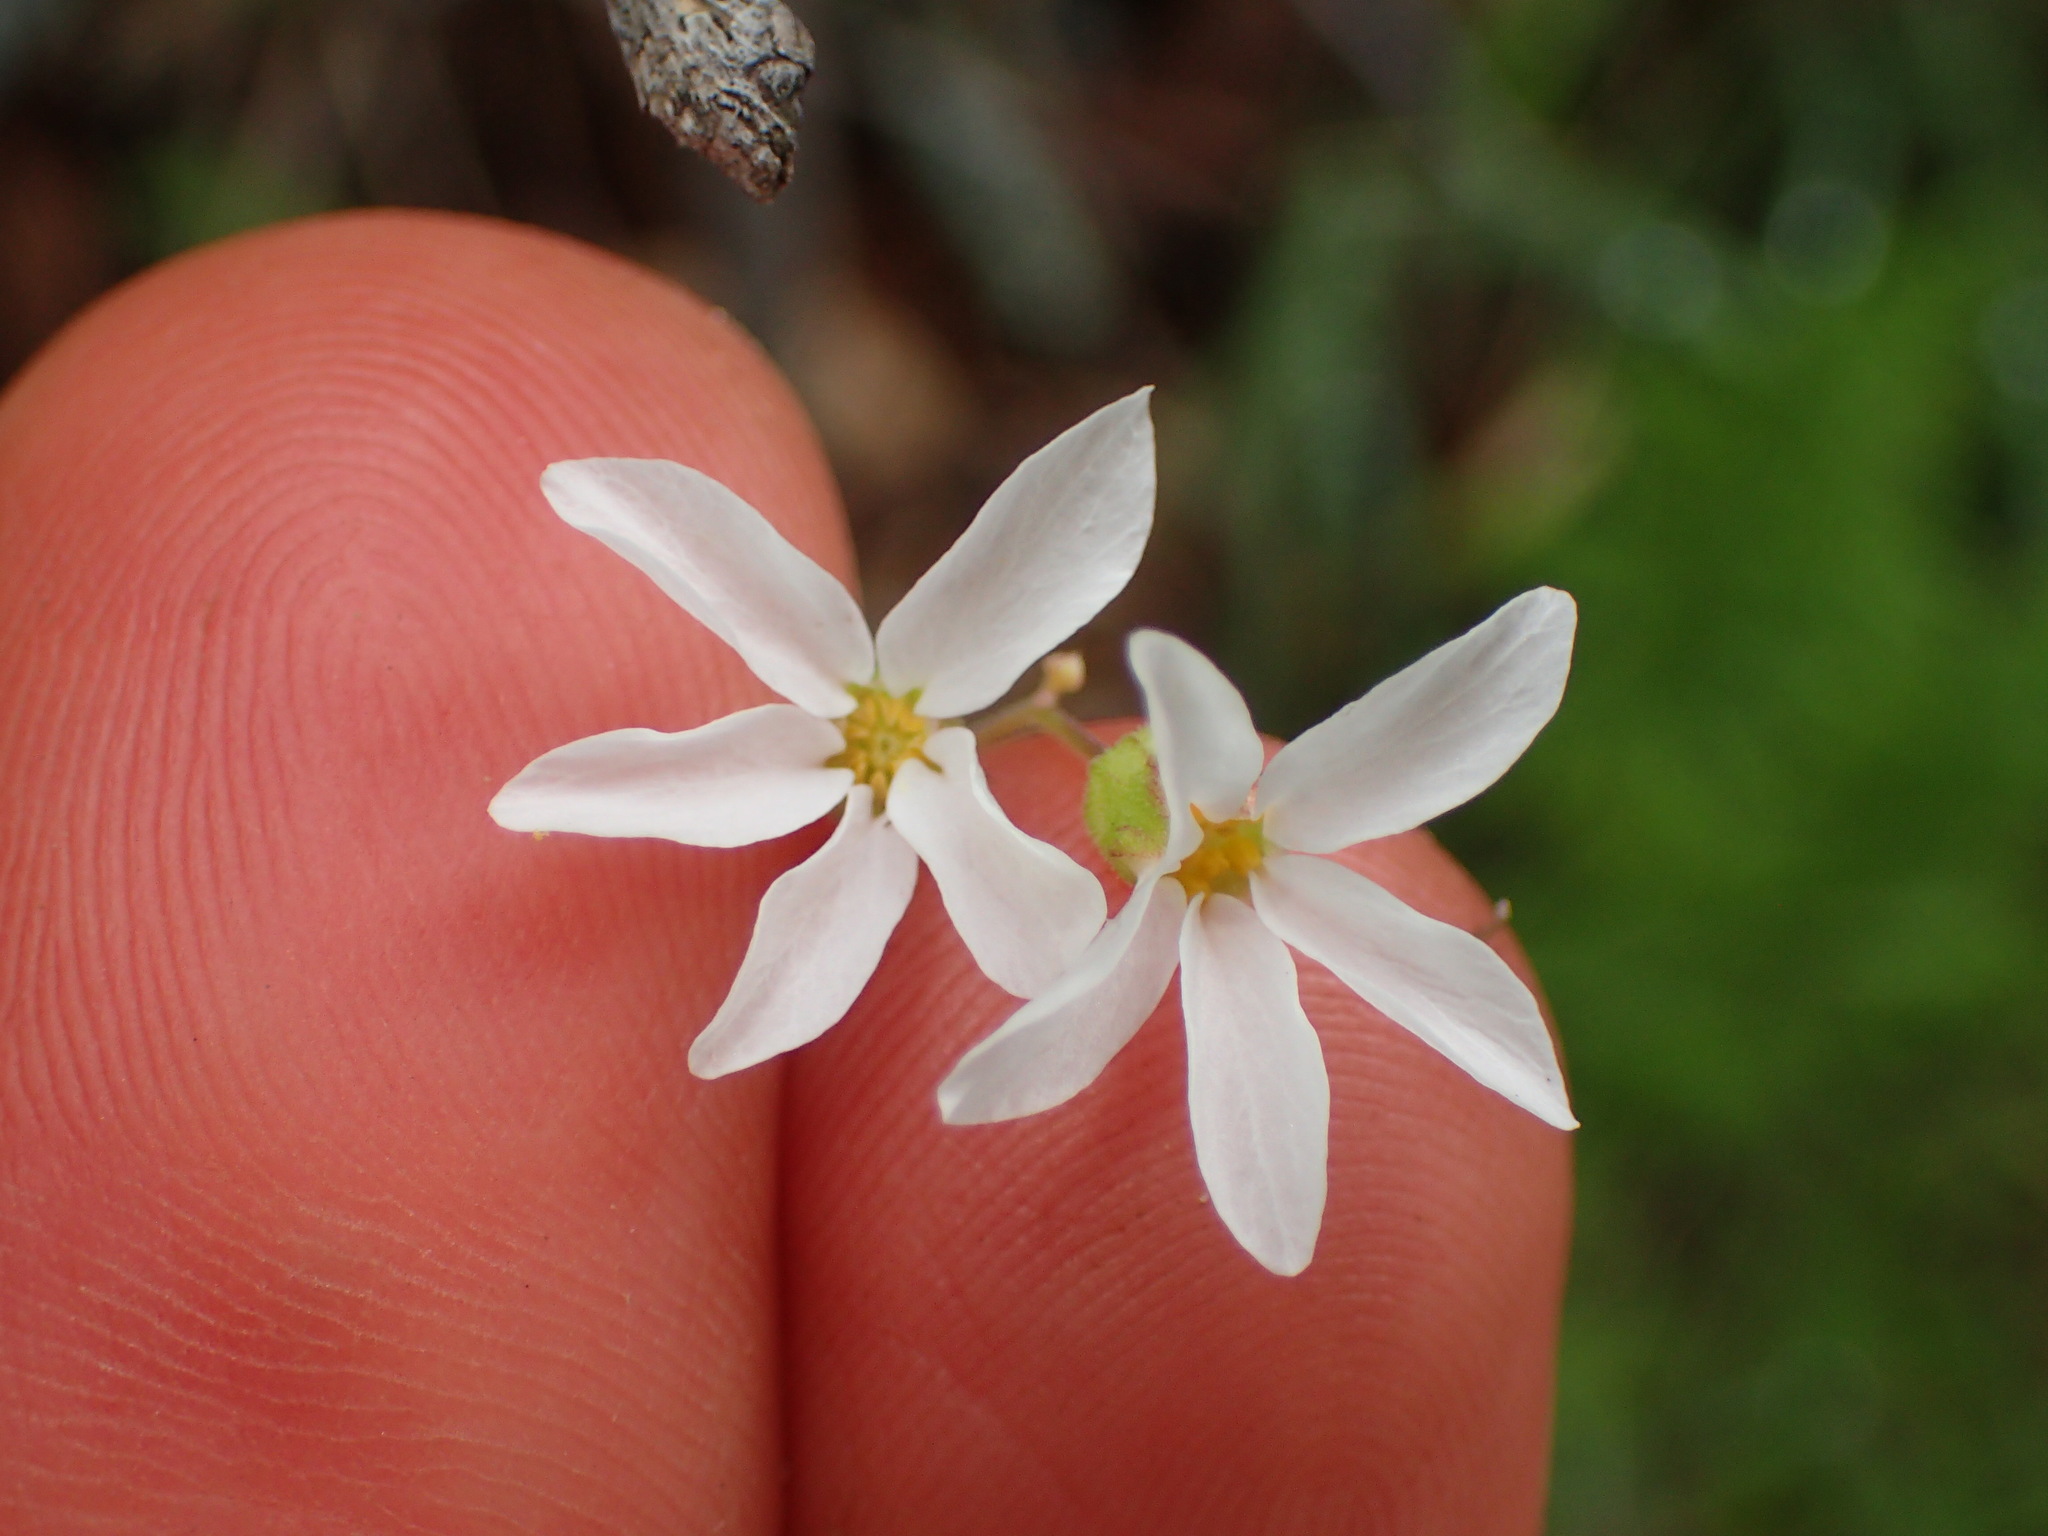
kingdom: Plantae
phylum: Tracheophyta
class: Magnoliopsida
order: Saxifragales
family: Saxifragaceae
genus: Lithophragma
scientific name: Lithophragma cymbalaria
